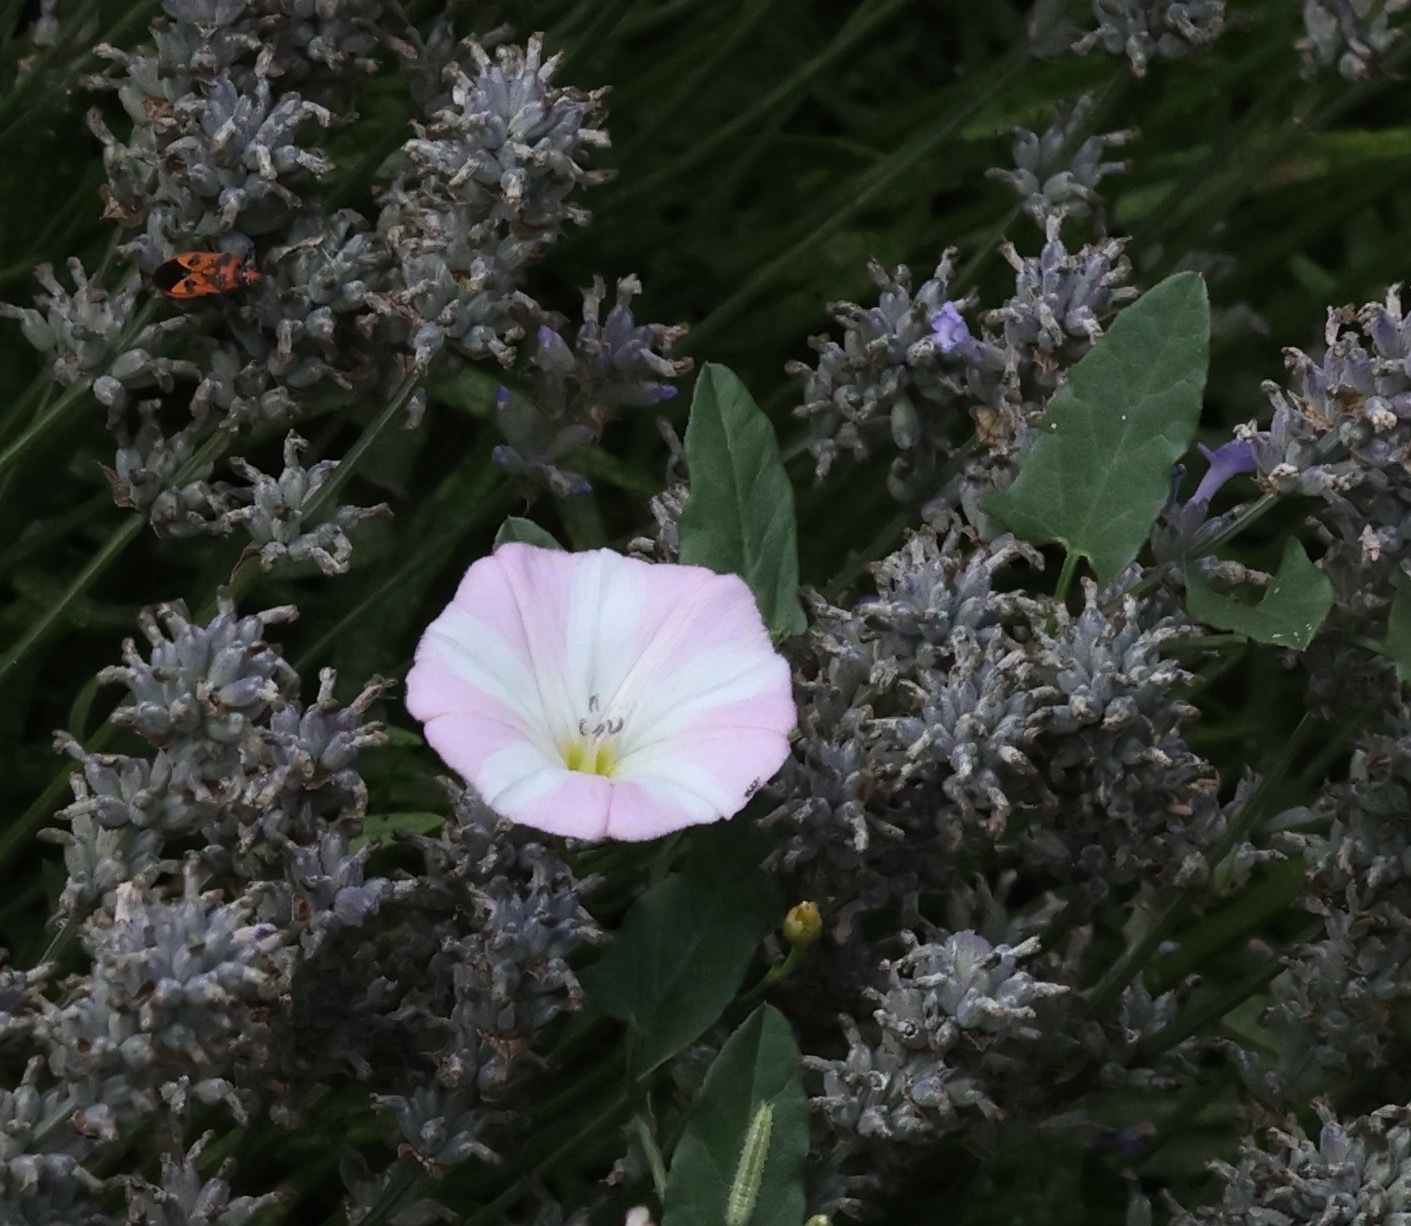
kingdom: Plantae
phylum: Tracheophyta
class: Magnoliopsida
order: Solanales
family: Convolvulaceae
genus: Convolvulus
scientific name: Convolvulus arvensis
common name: Field bindweed
